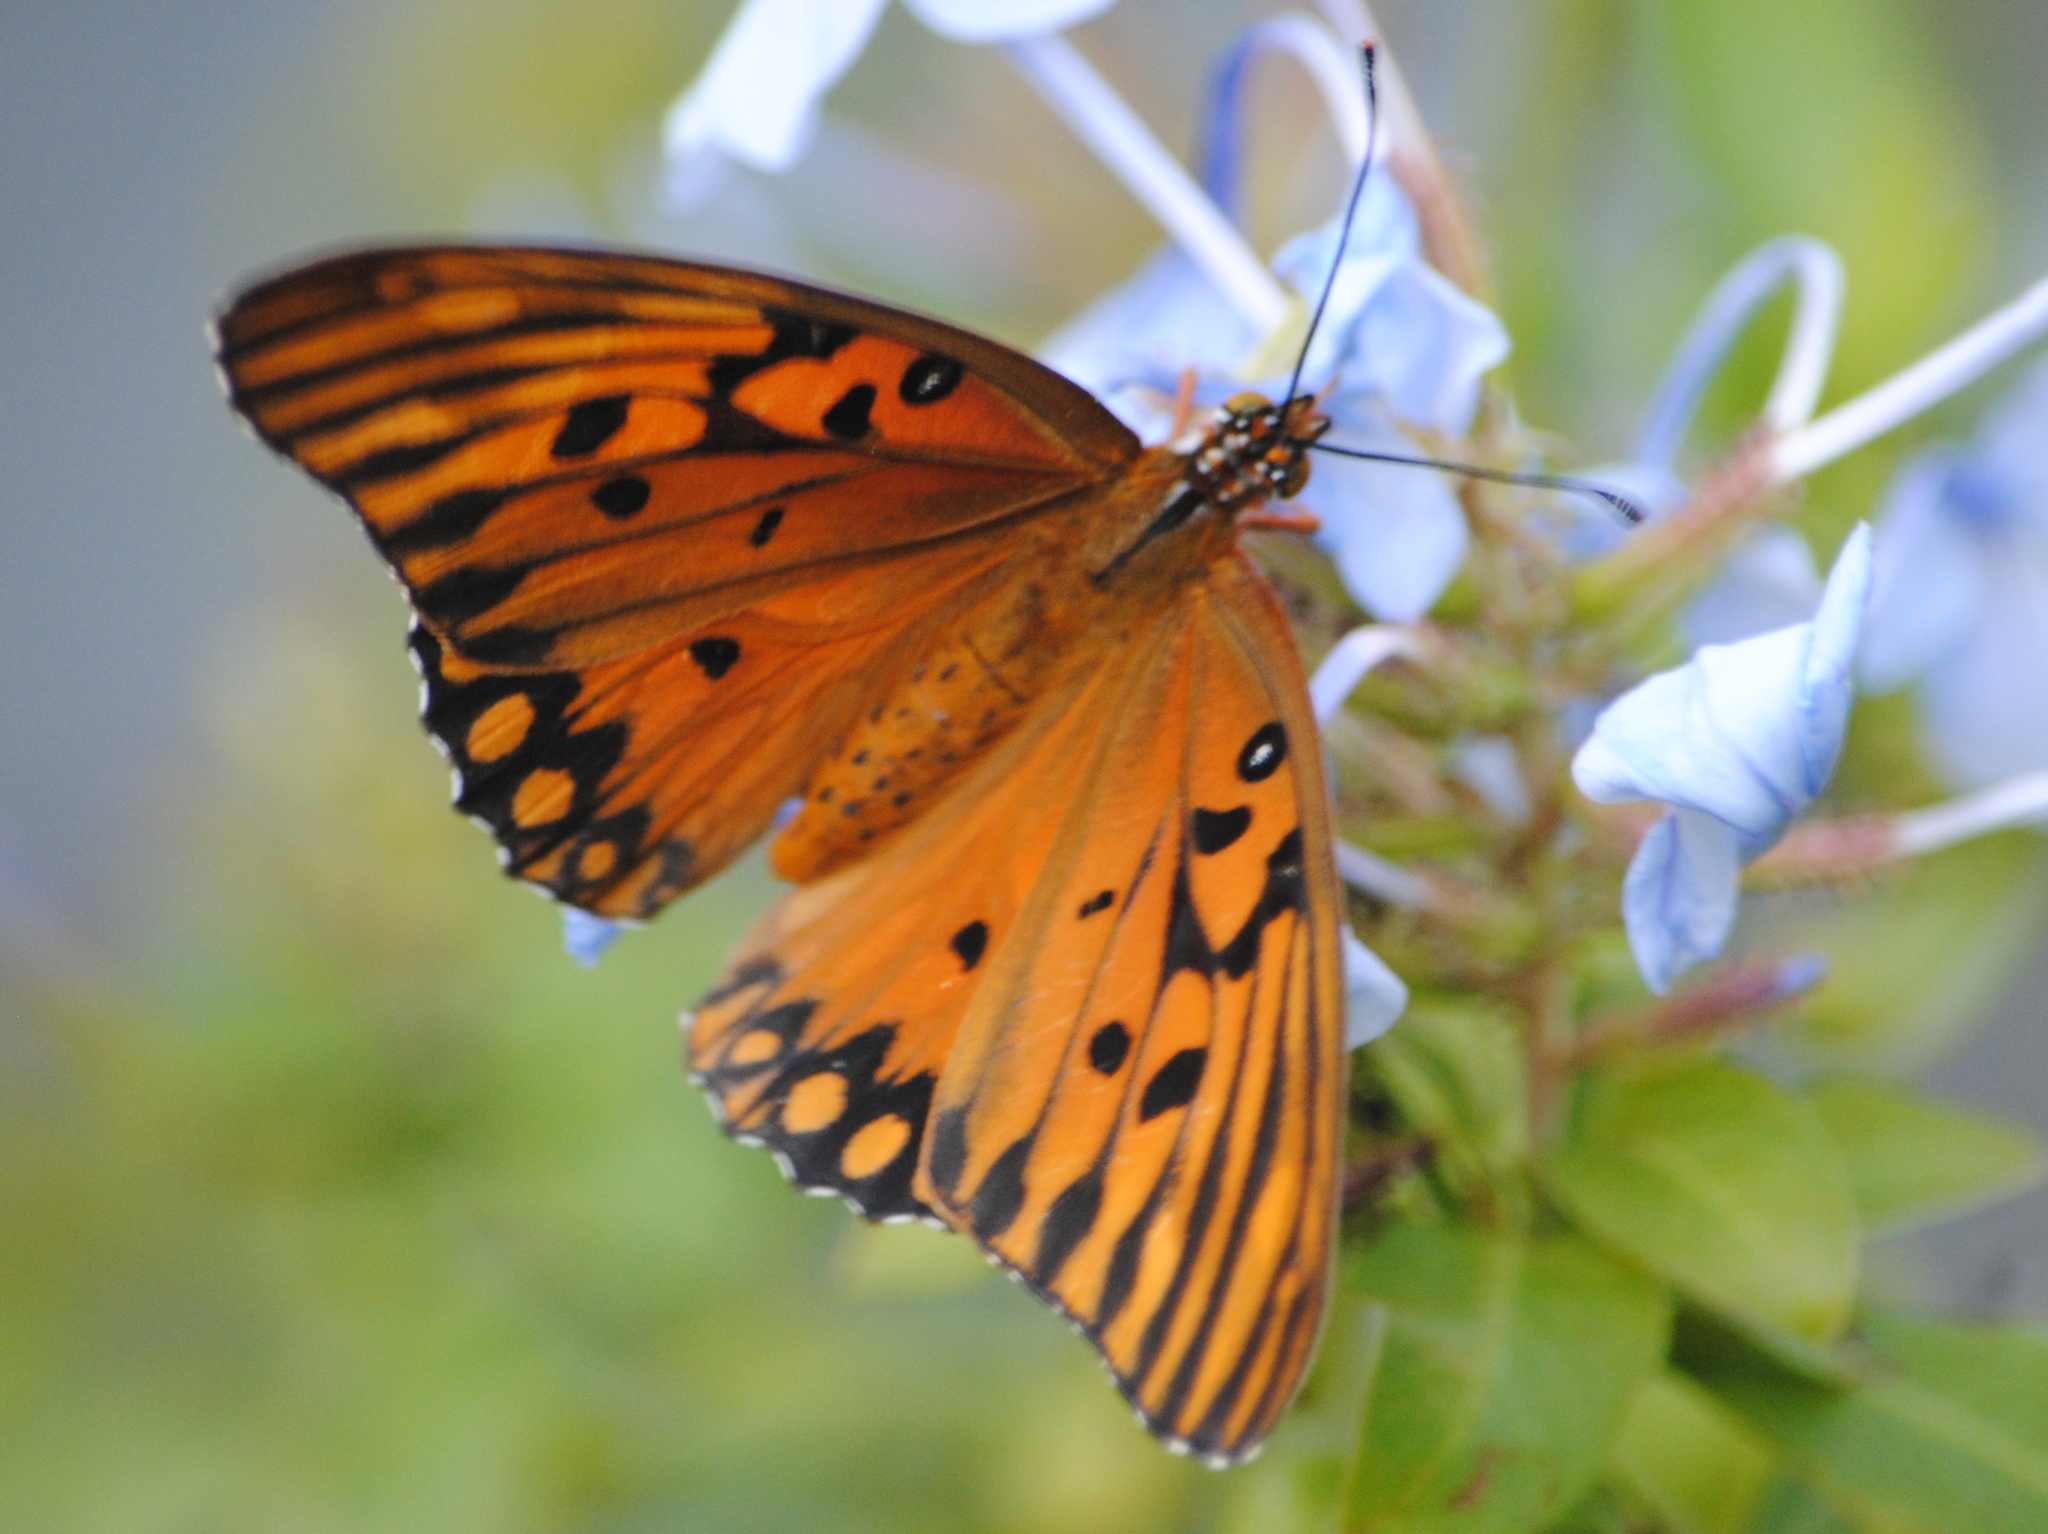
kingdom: Animalia
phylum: Arthropoda
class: Insecta
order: Lepidoptera
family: Nymphalidae
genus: Dione
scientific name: Dione vanillae
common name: Gulf fritillary
